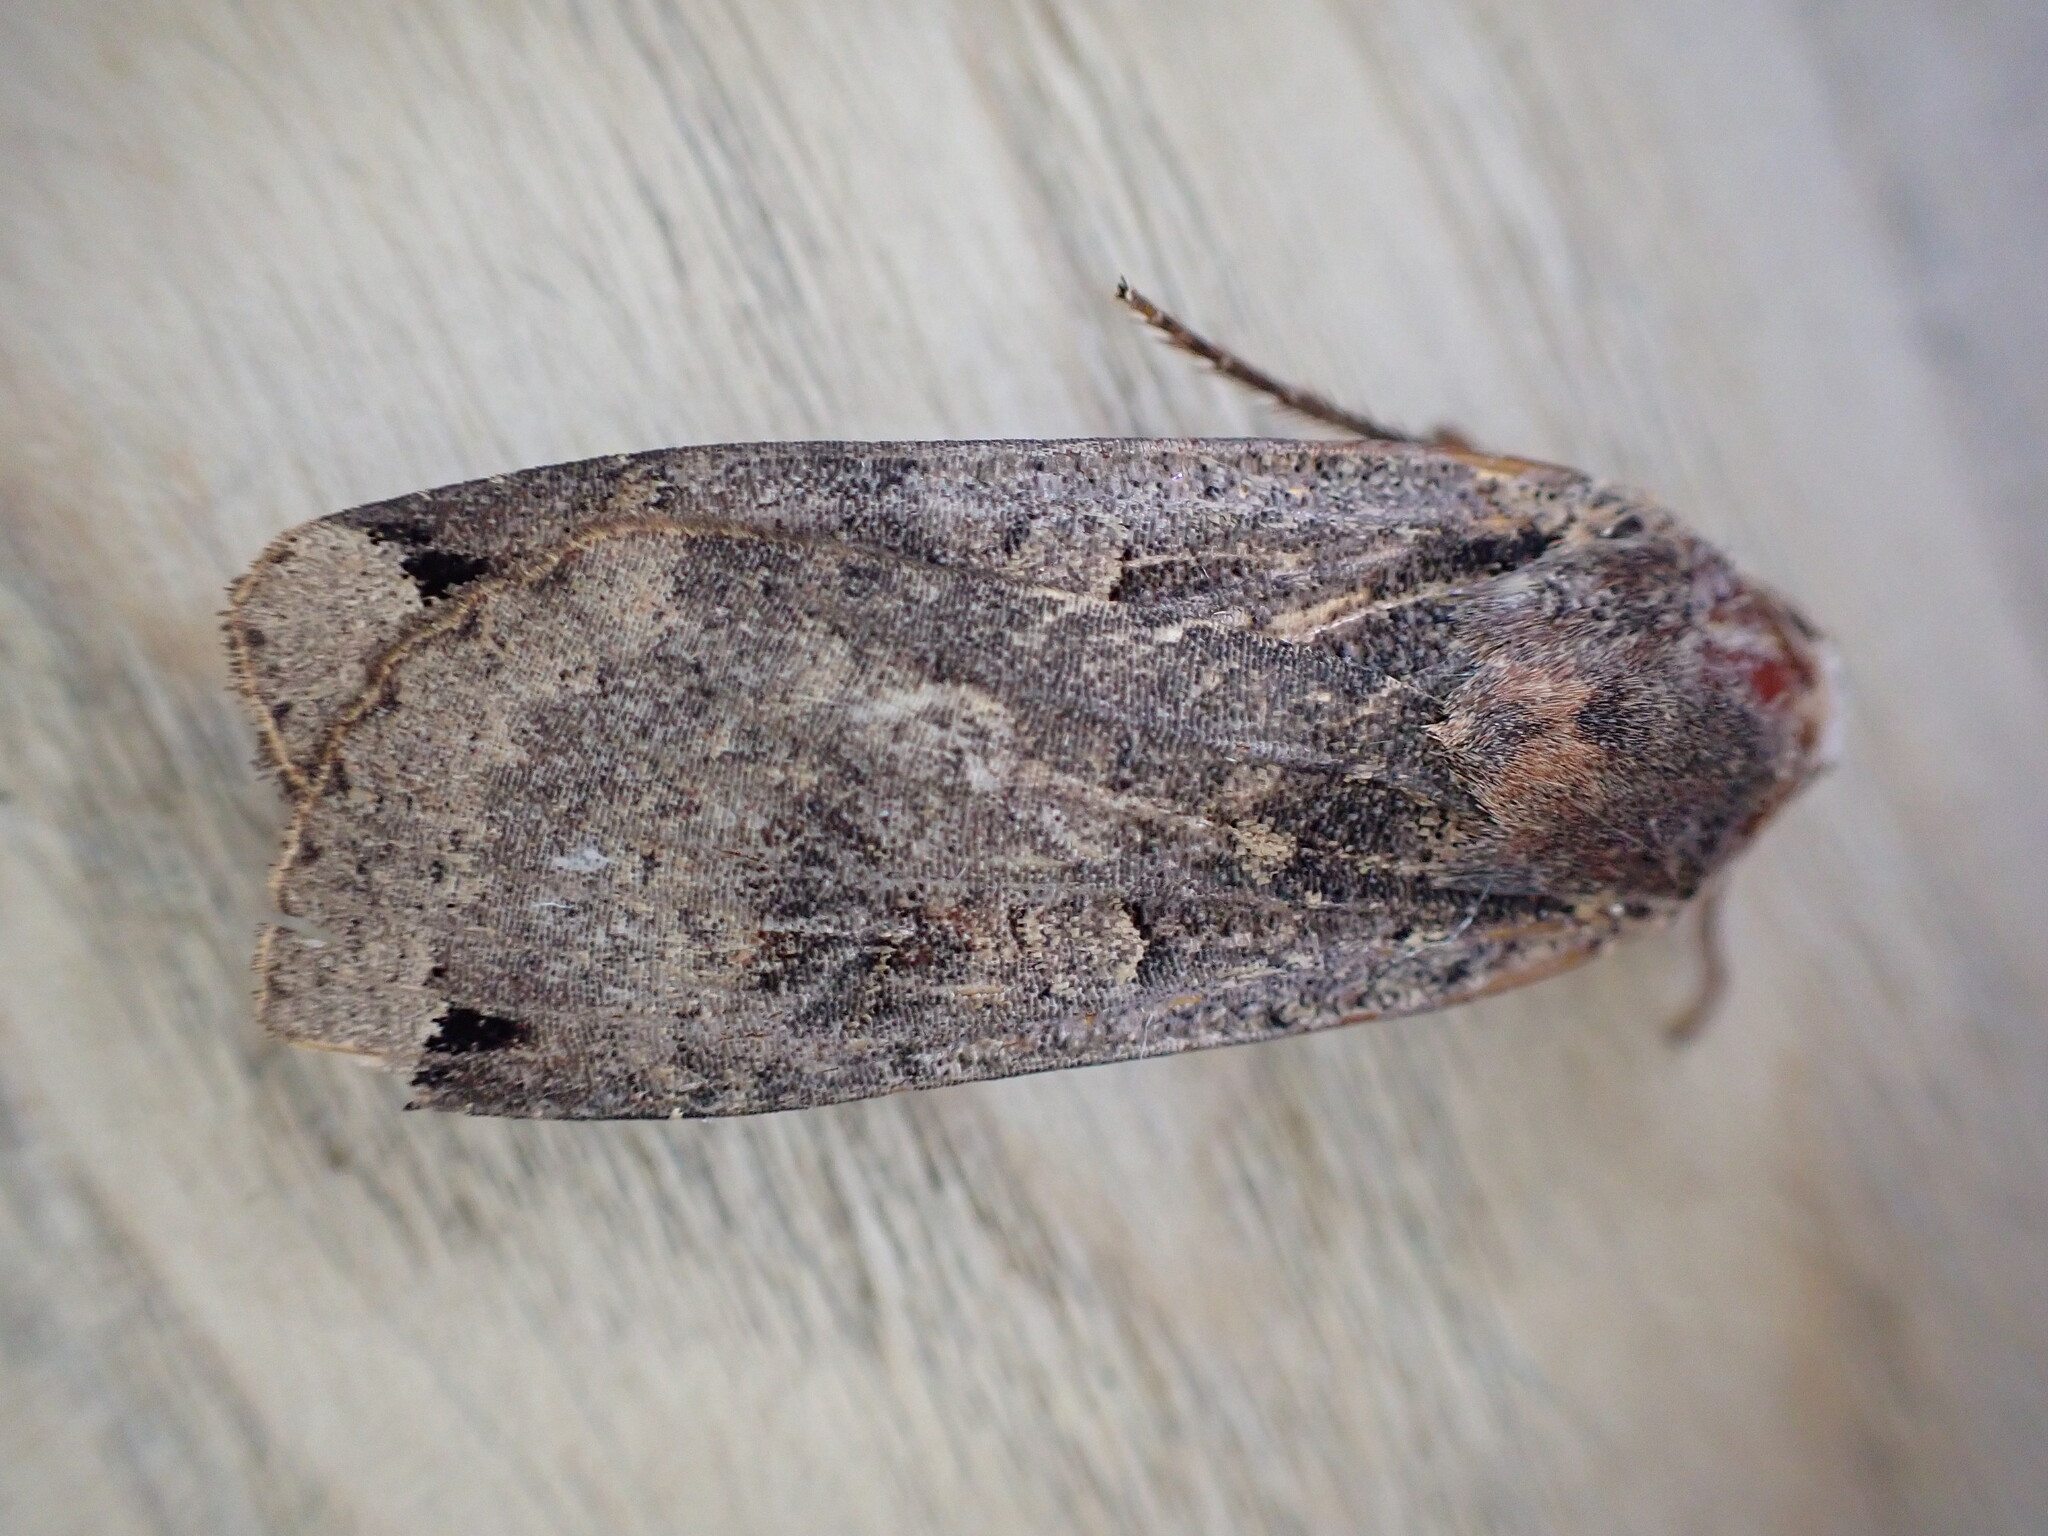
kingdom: Animalia
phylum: Arthropoda
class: Insecta
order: Lepidoptera
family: Noctuidae
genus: Noctua
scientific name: Noctua pronuba
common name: Large yellow underwing
